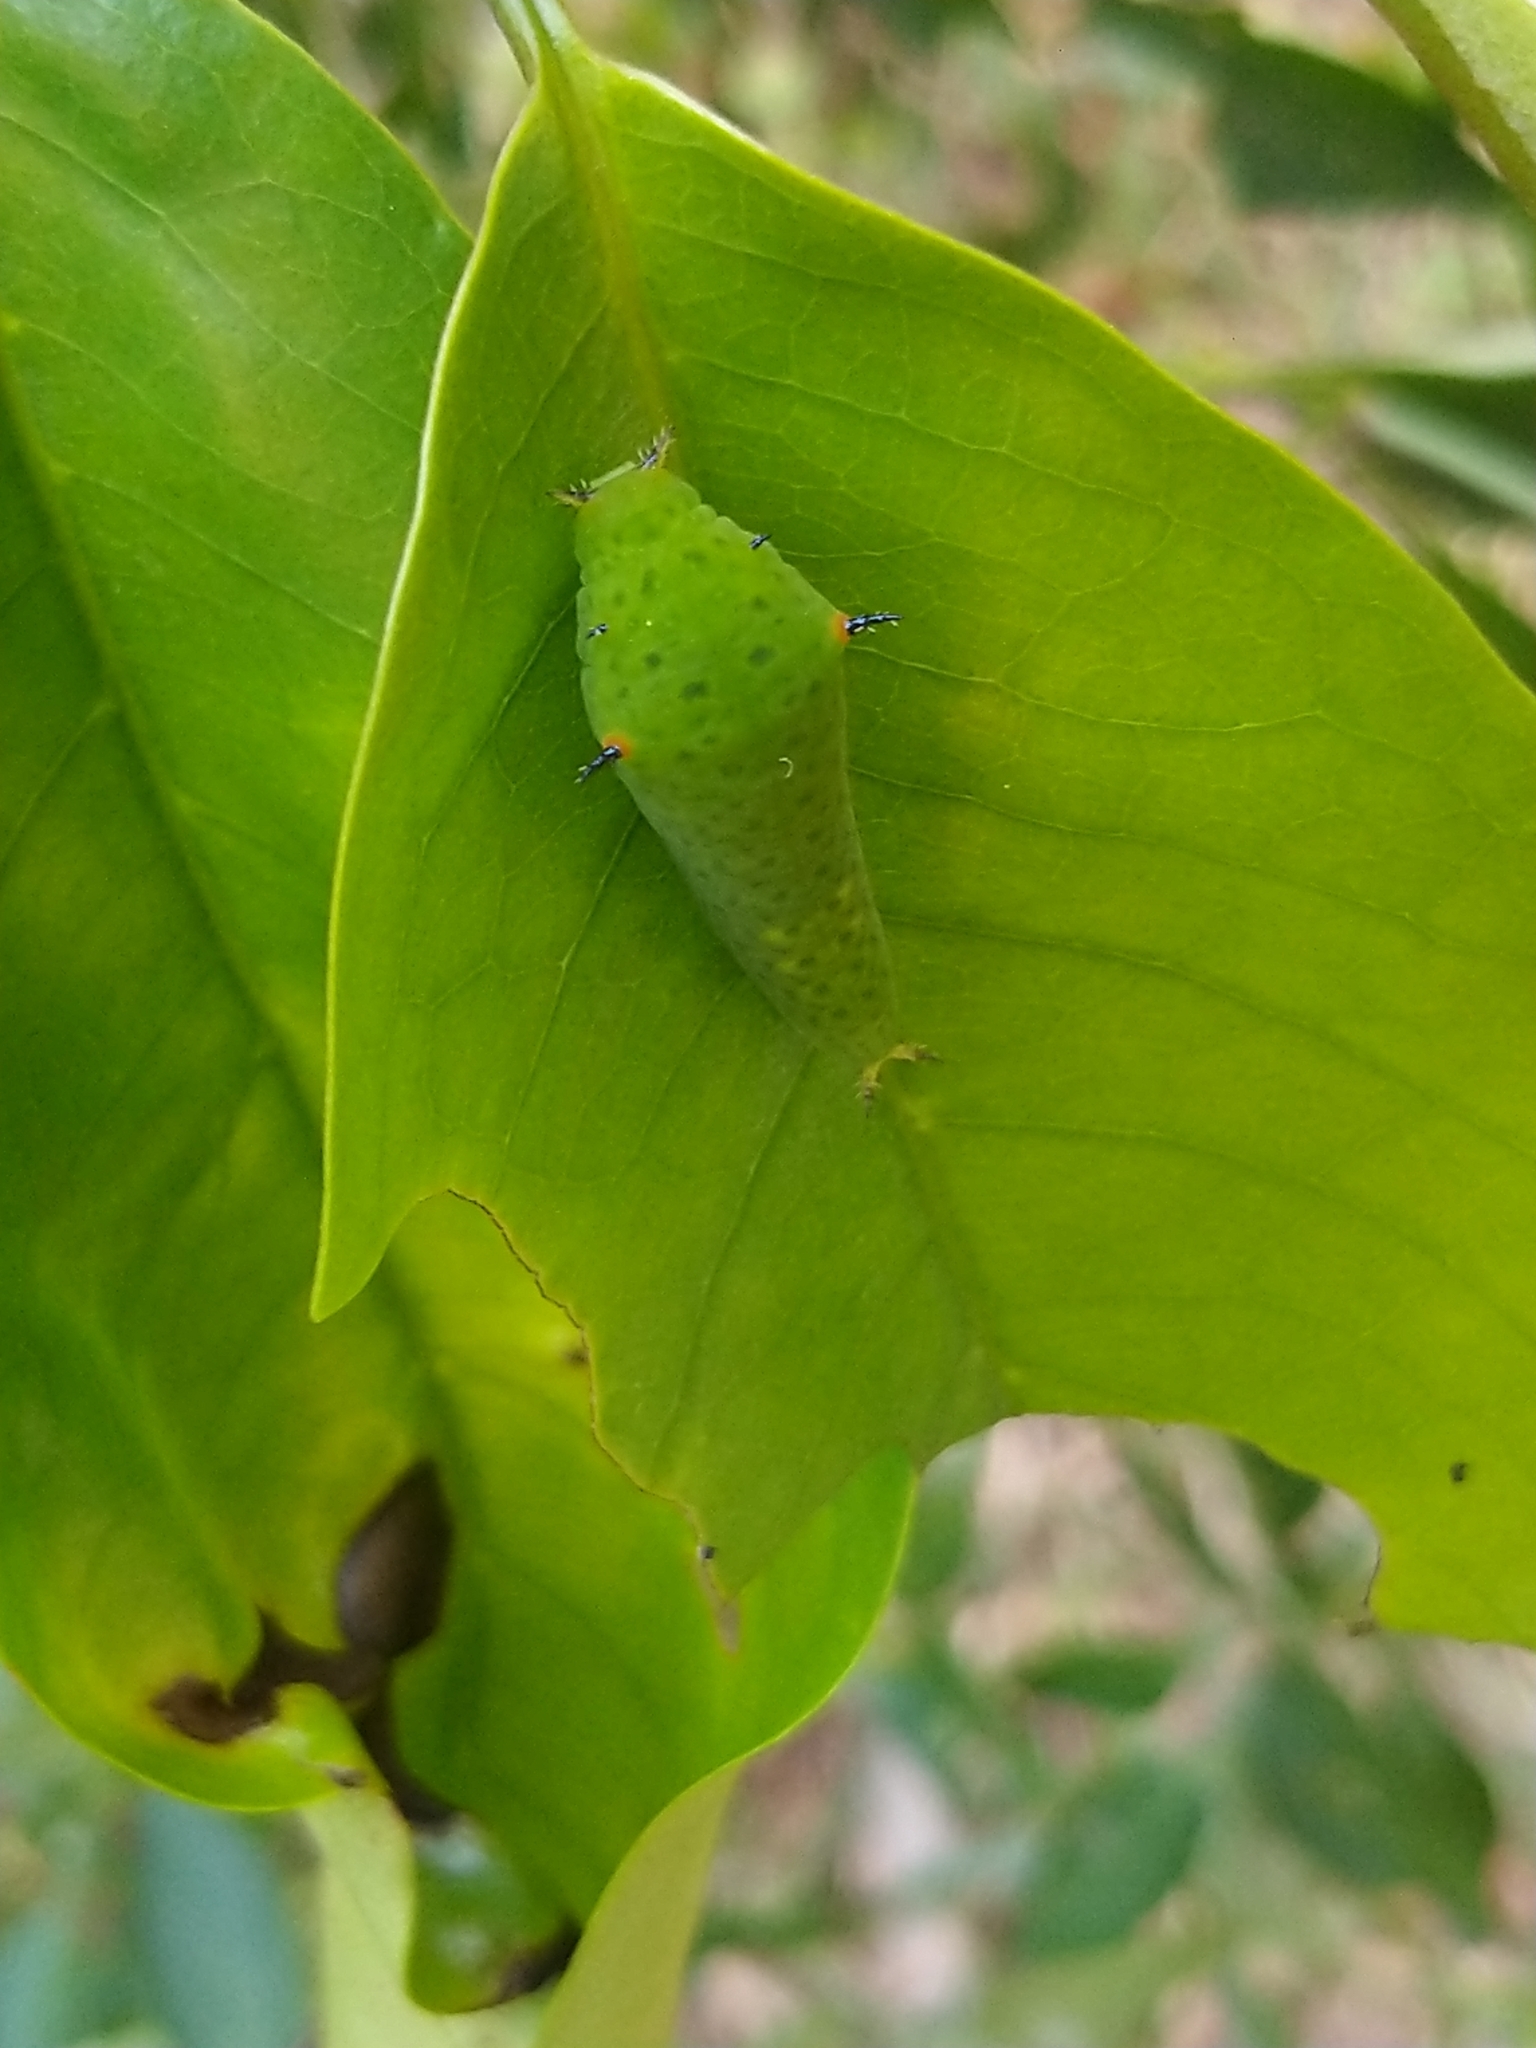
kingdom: Animalia
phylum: Arthropoda
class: Insecta
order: Lepidoptera
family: Papilionidae
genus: Graphium
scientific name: Graphium agamemnon
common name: Tailed jay
